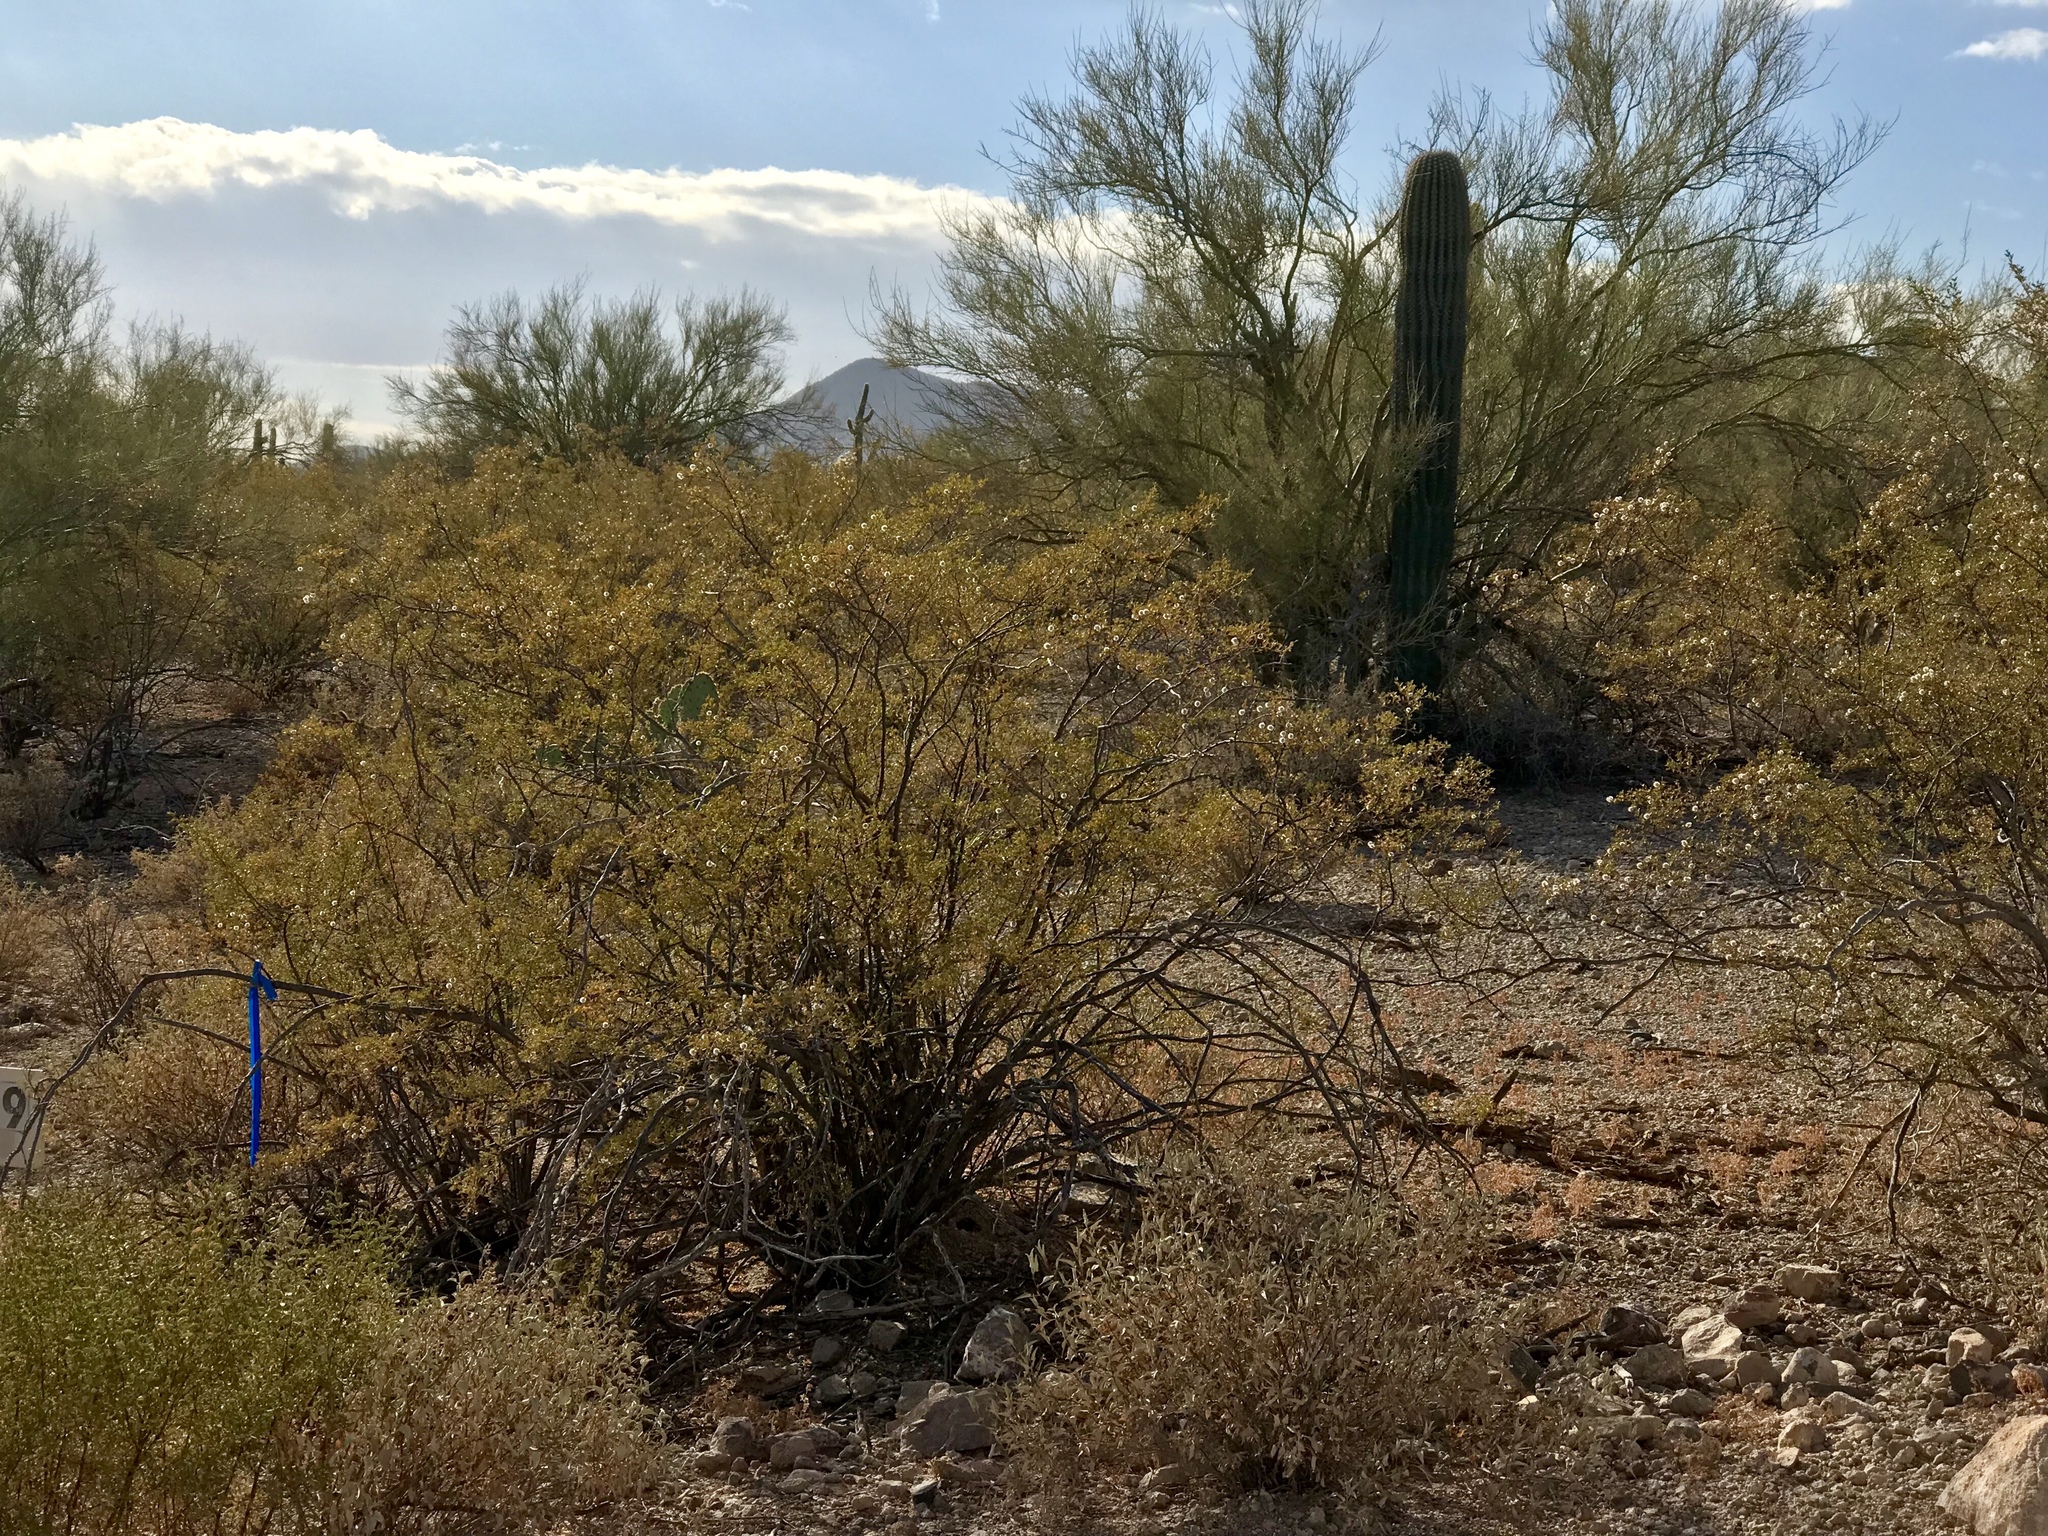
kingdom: Plantae
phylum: Tracheophyta
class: Magnoliopsida
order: Zygophyllales
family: Zygophyllaceae
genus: Larrea
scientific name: Larrea tridentata
